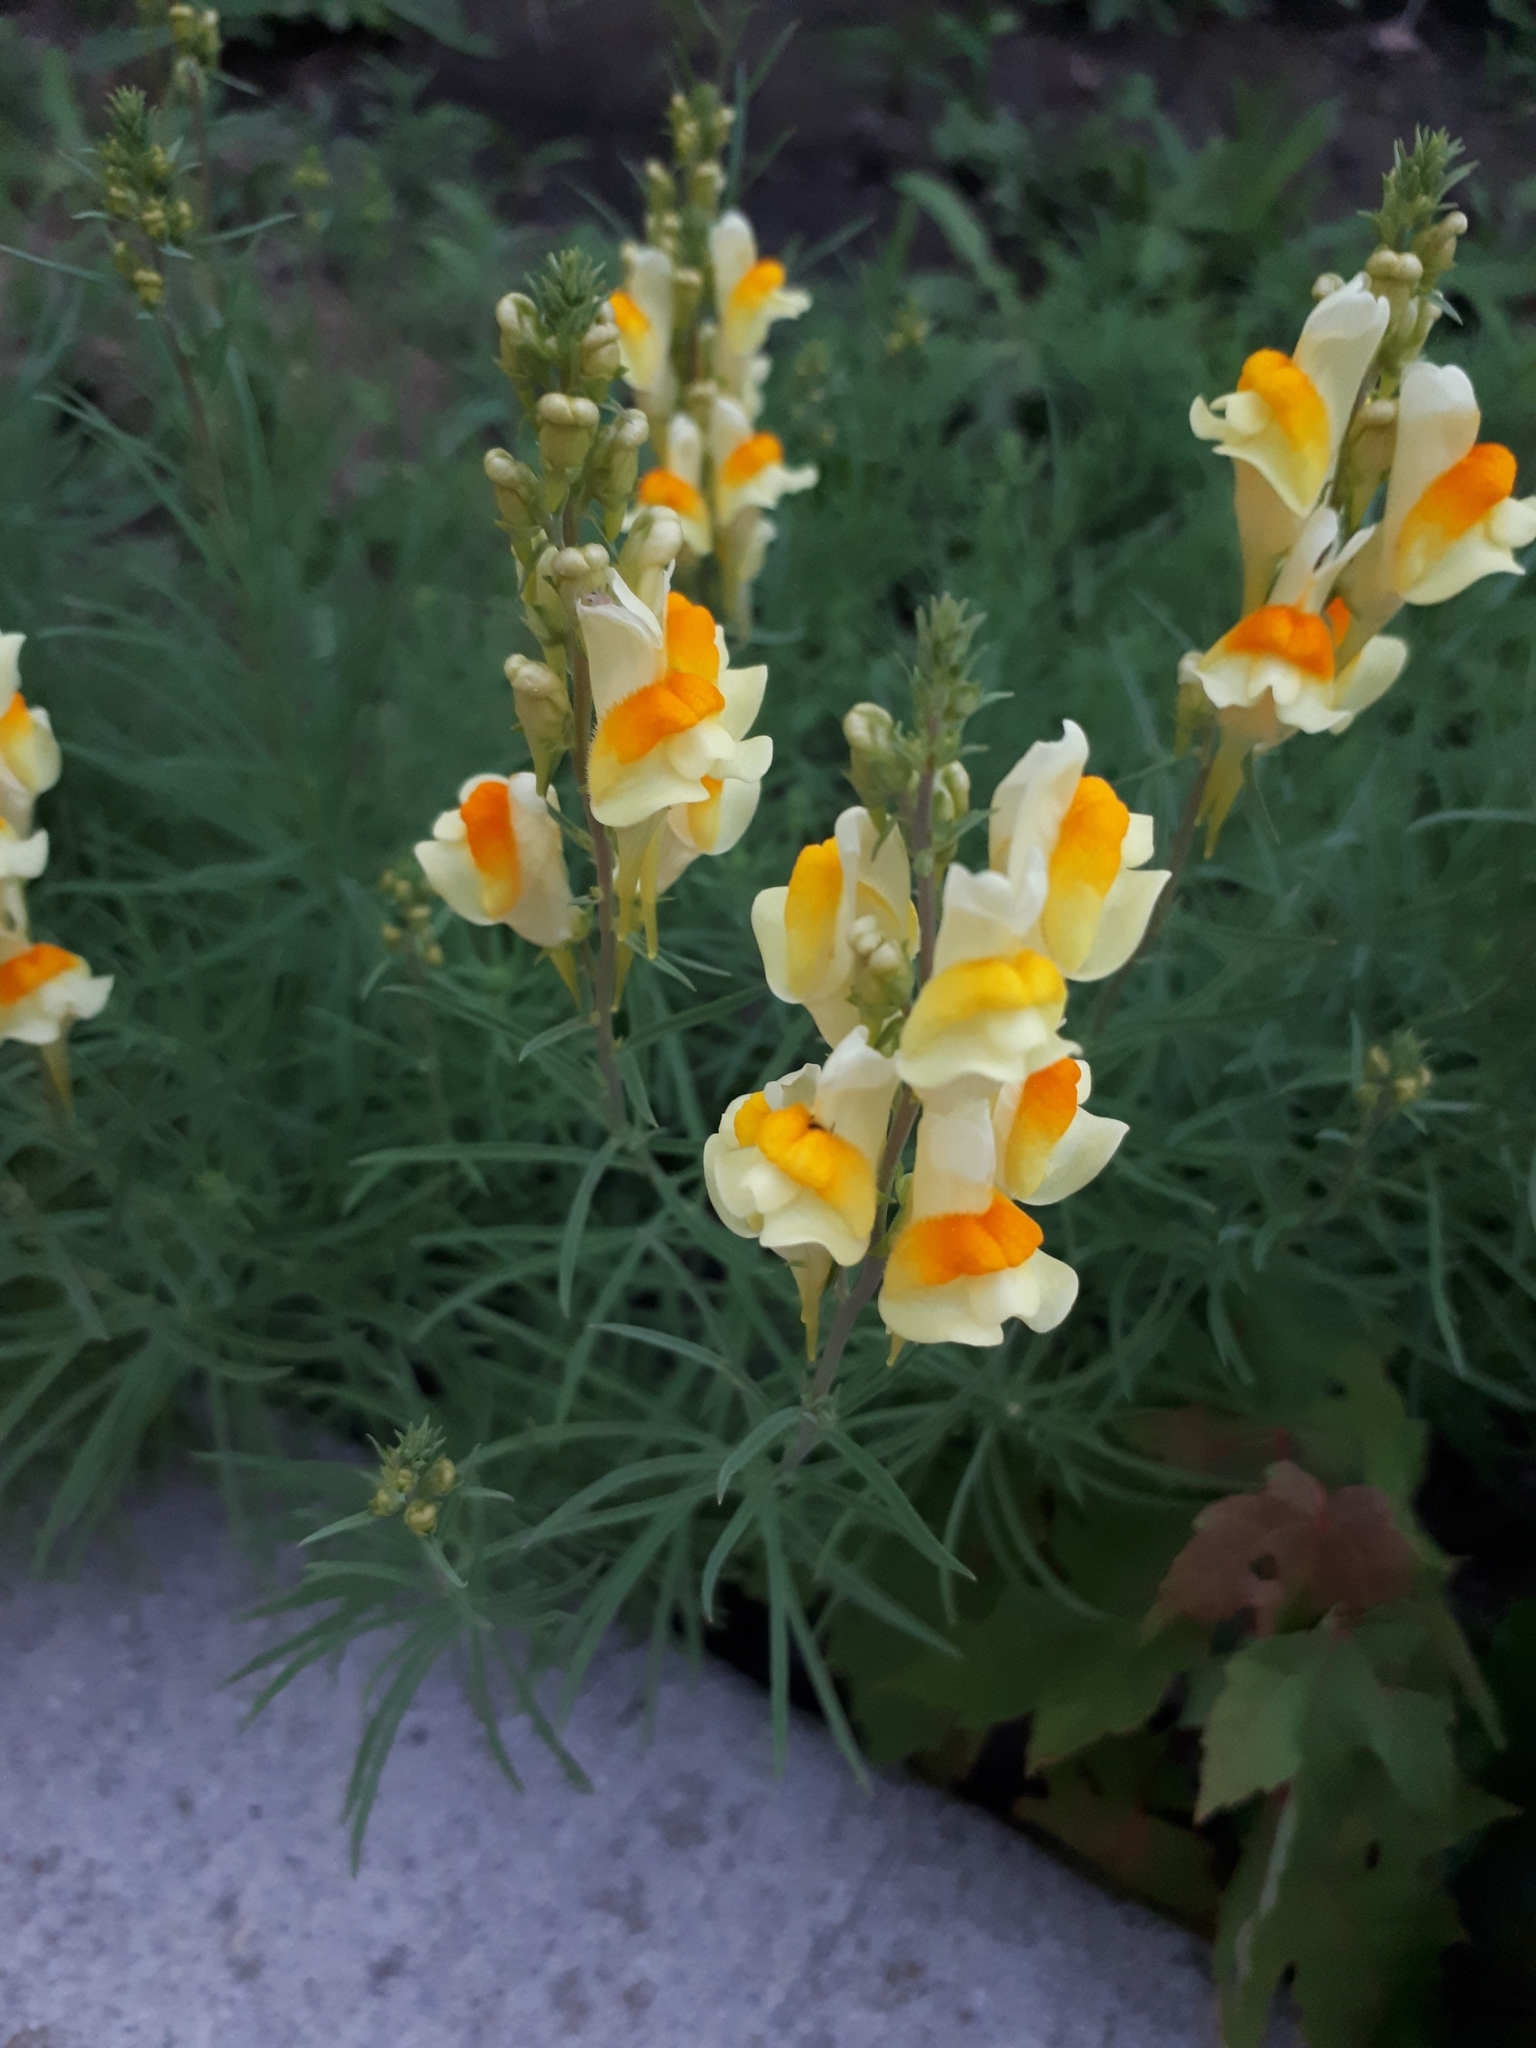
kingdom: Plantae
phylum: Tracheophyta
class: Magnoliopsida
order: Lamiales
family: Plantaginaceae
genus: Linaria
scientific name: Linaria vulgaris
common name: Butter and eggs
